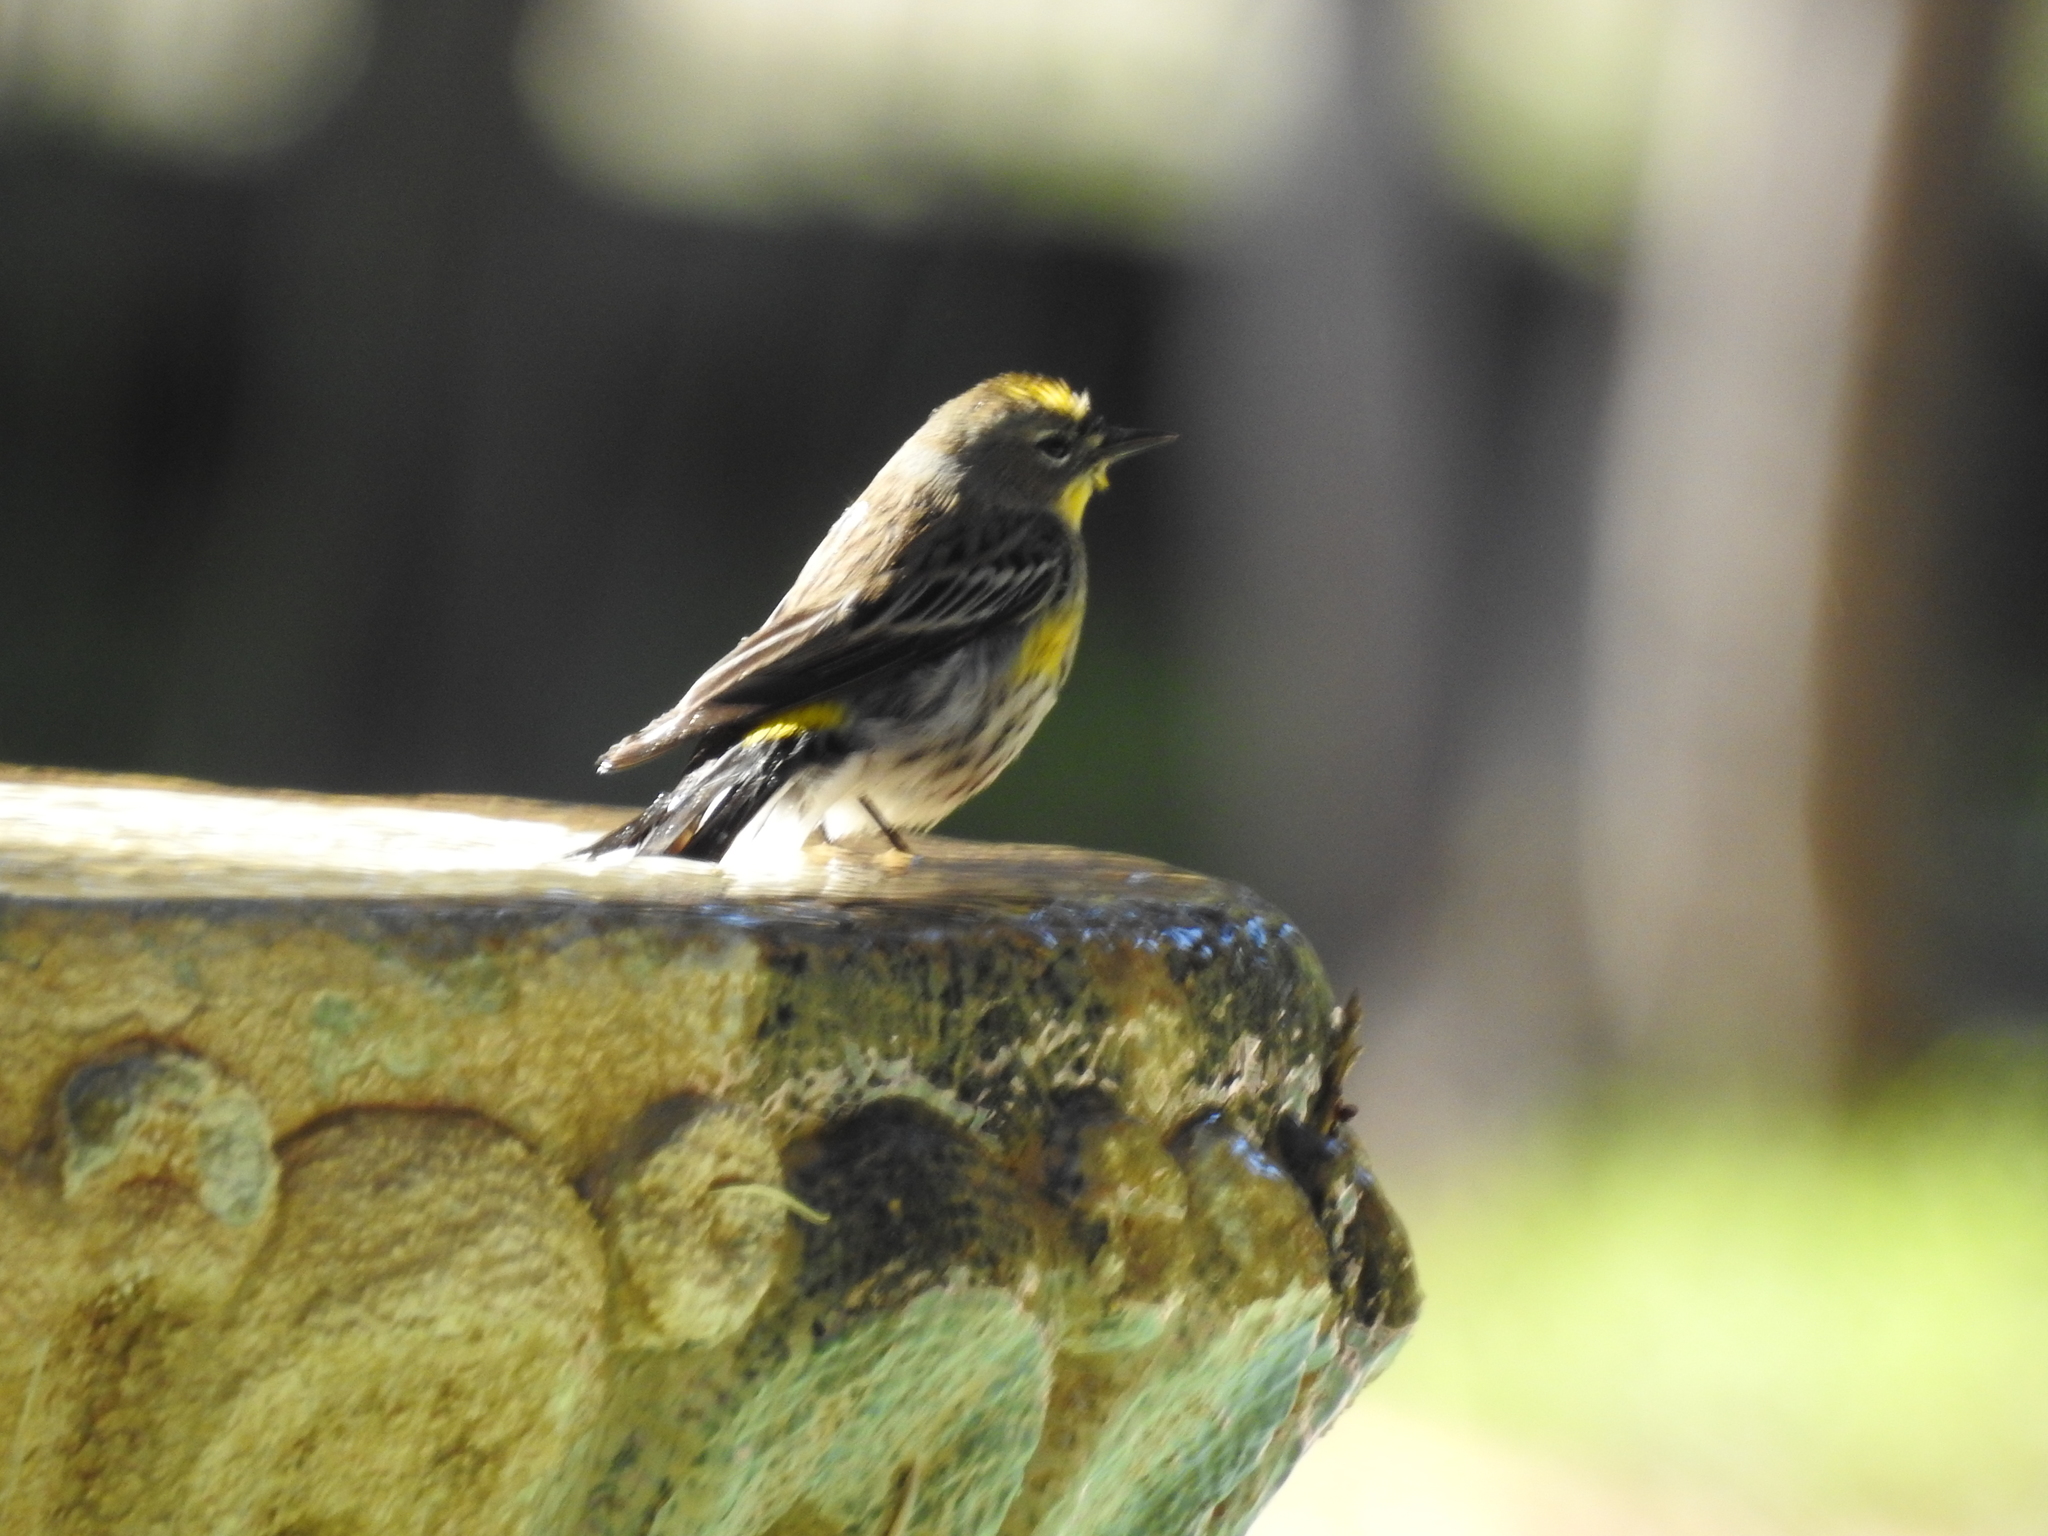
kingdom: Animalia
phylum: Chordata
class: Aves
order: Passeriformes
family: Parulidae
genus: Setophaga
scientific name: Setophaga coronata
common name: Myrtle warbler
